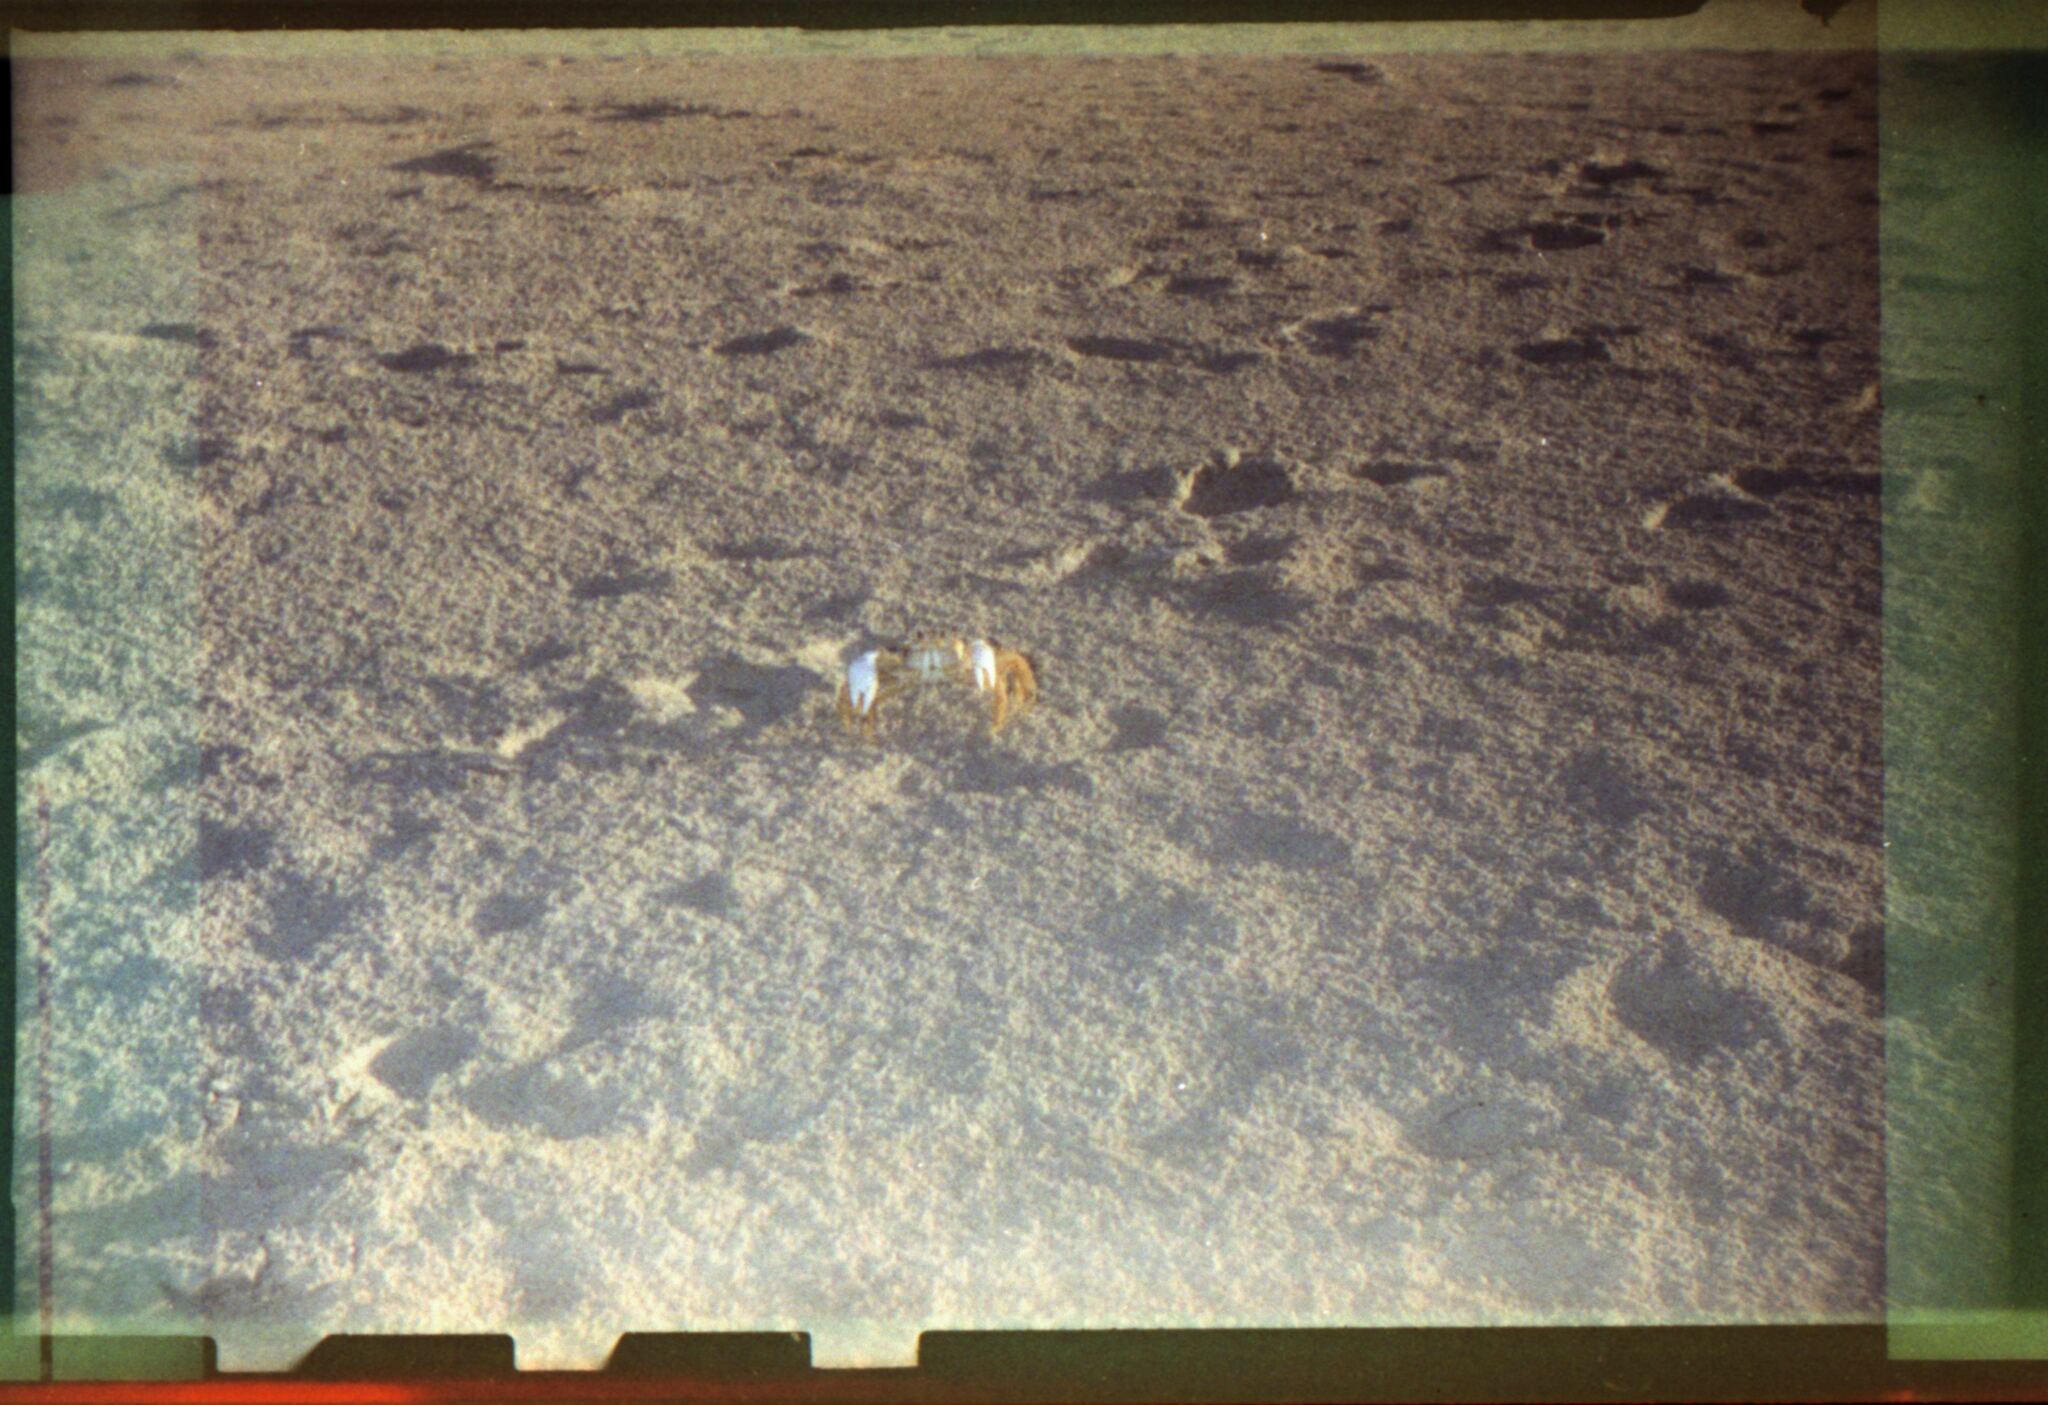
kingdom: Animalia
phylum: Arthropoda
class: Malacostraca
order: Decapoda
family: Ocypodidae
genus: Ocypode
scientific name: Ocypode quadrata
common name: Ghost crab
